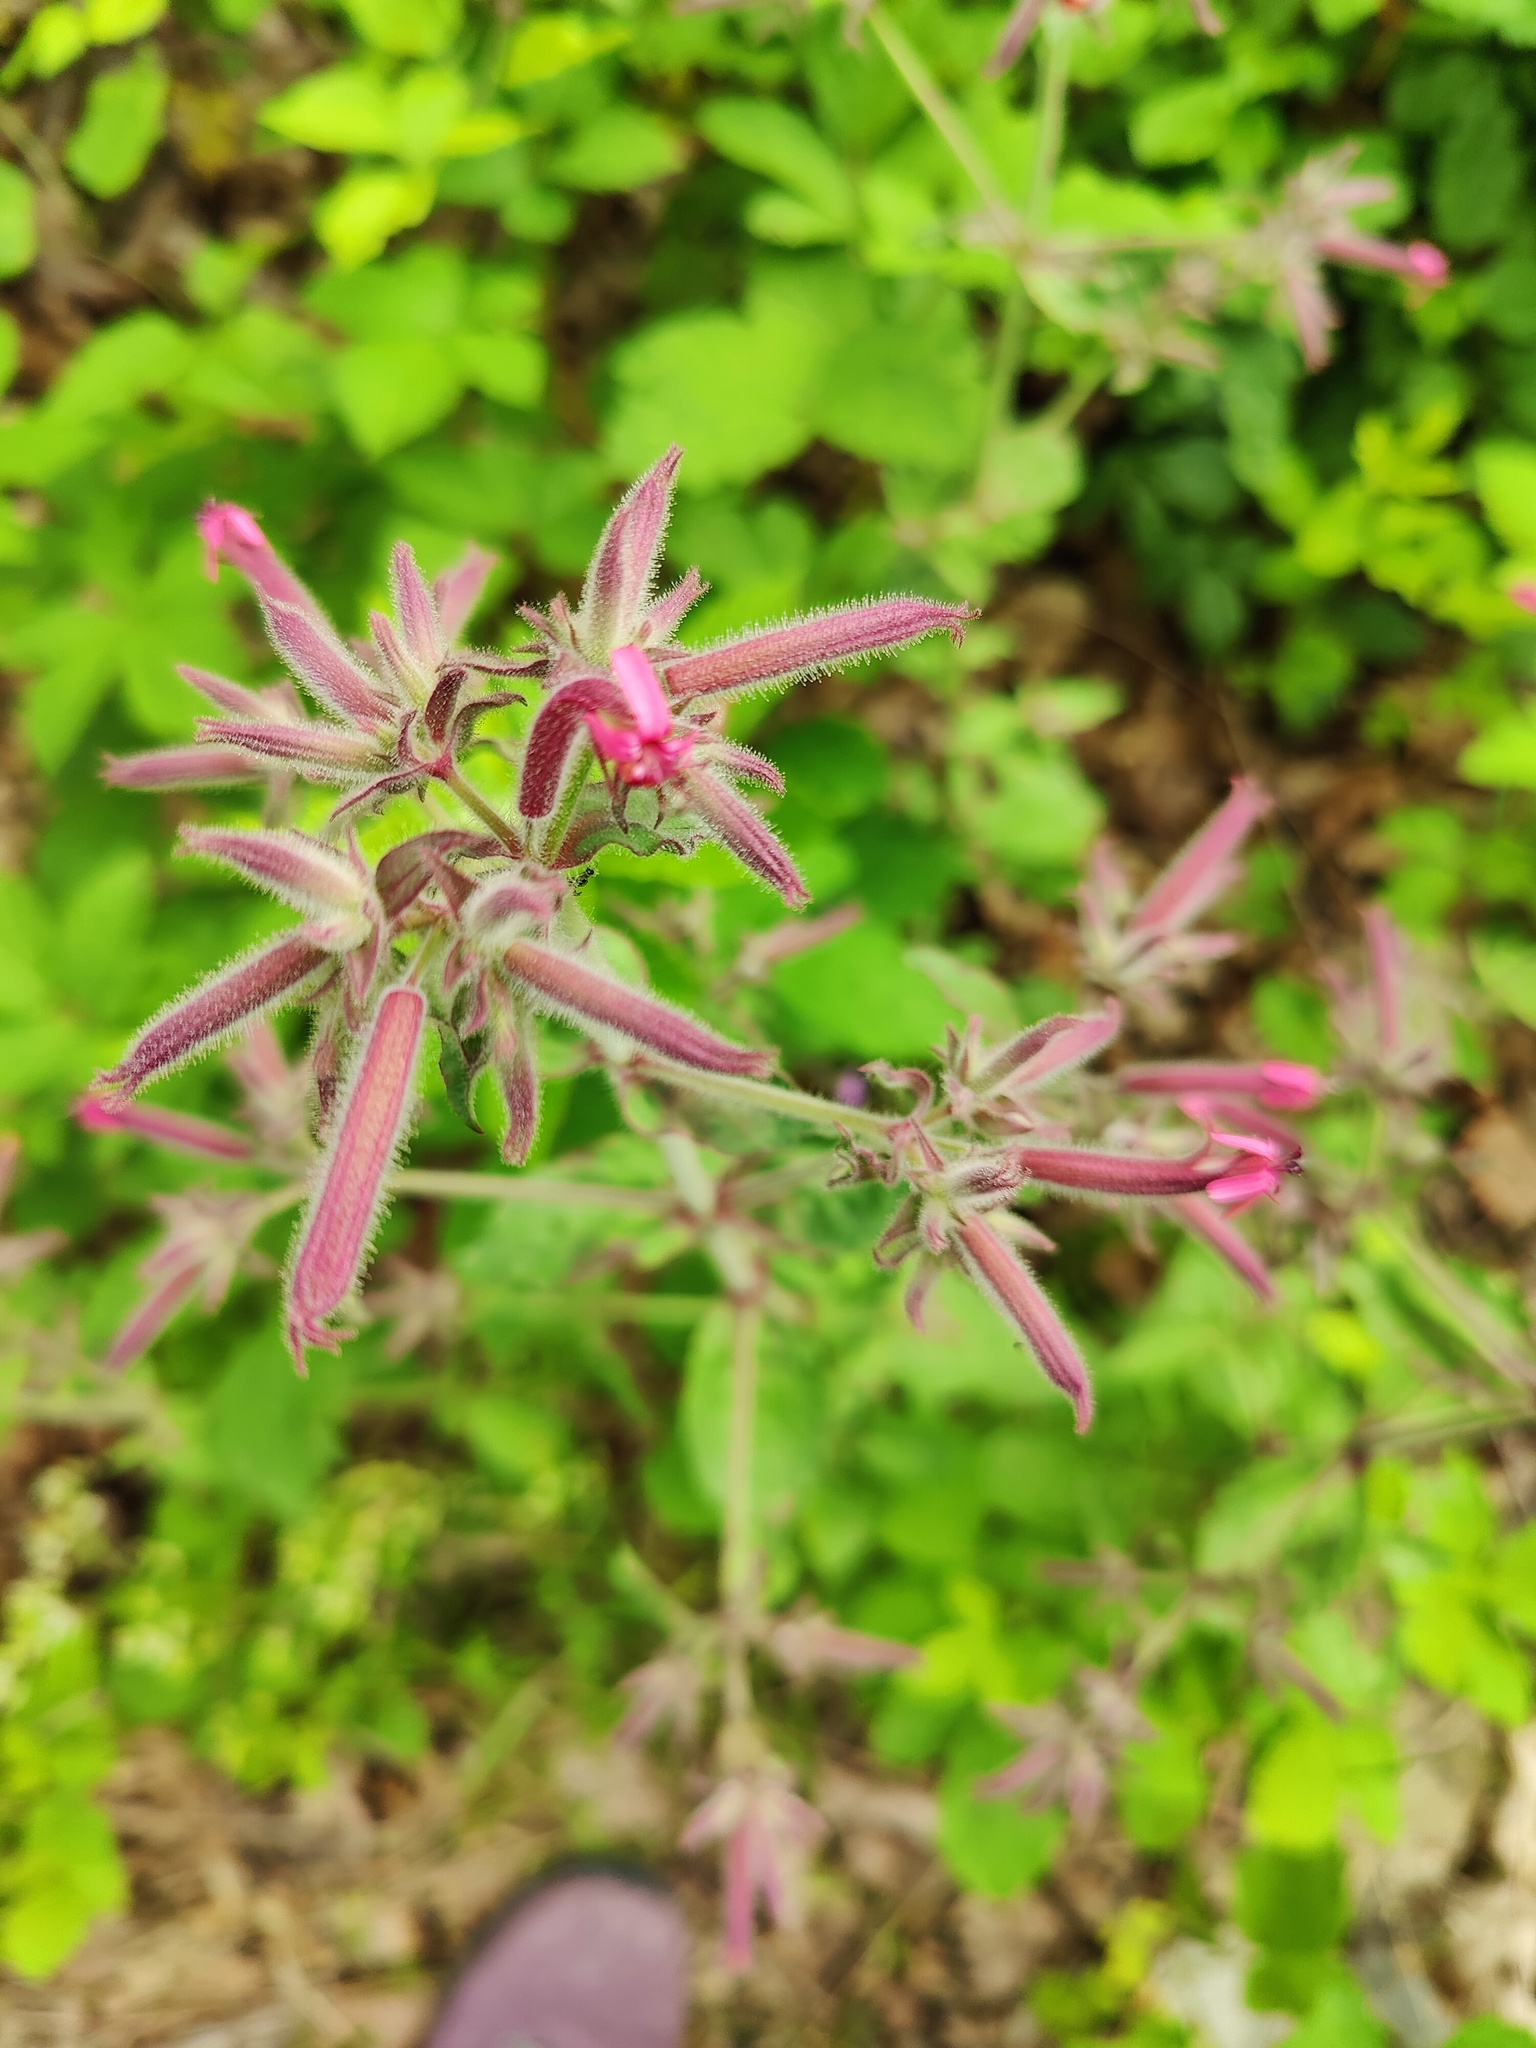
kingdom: Plantae
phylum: Tracheophyta
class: Magnoliopsida
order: Caryophyllales
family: Caryophyllaceae
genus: Saponaria
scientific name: Saponaria glutinosa
